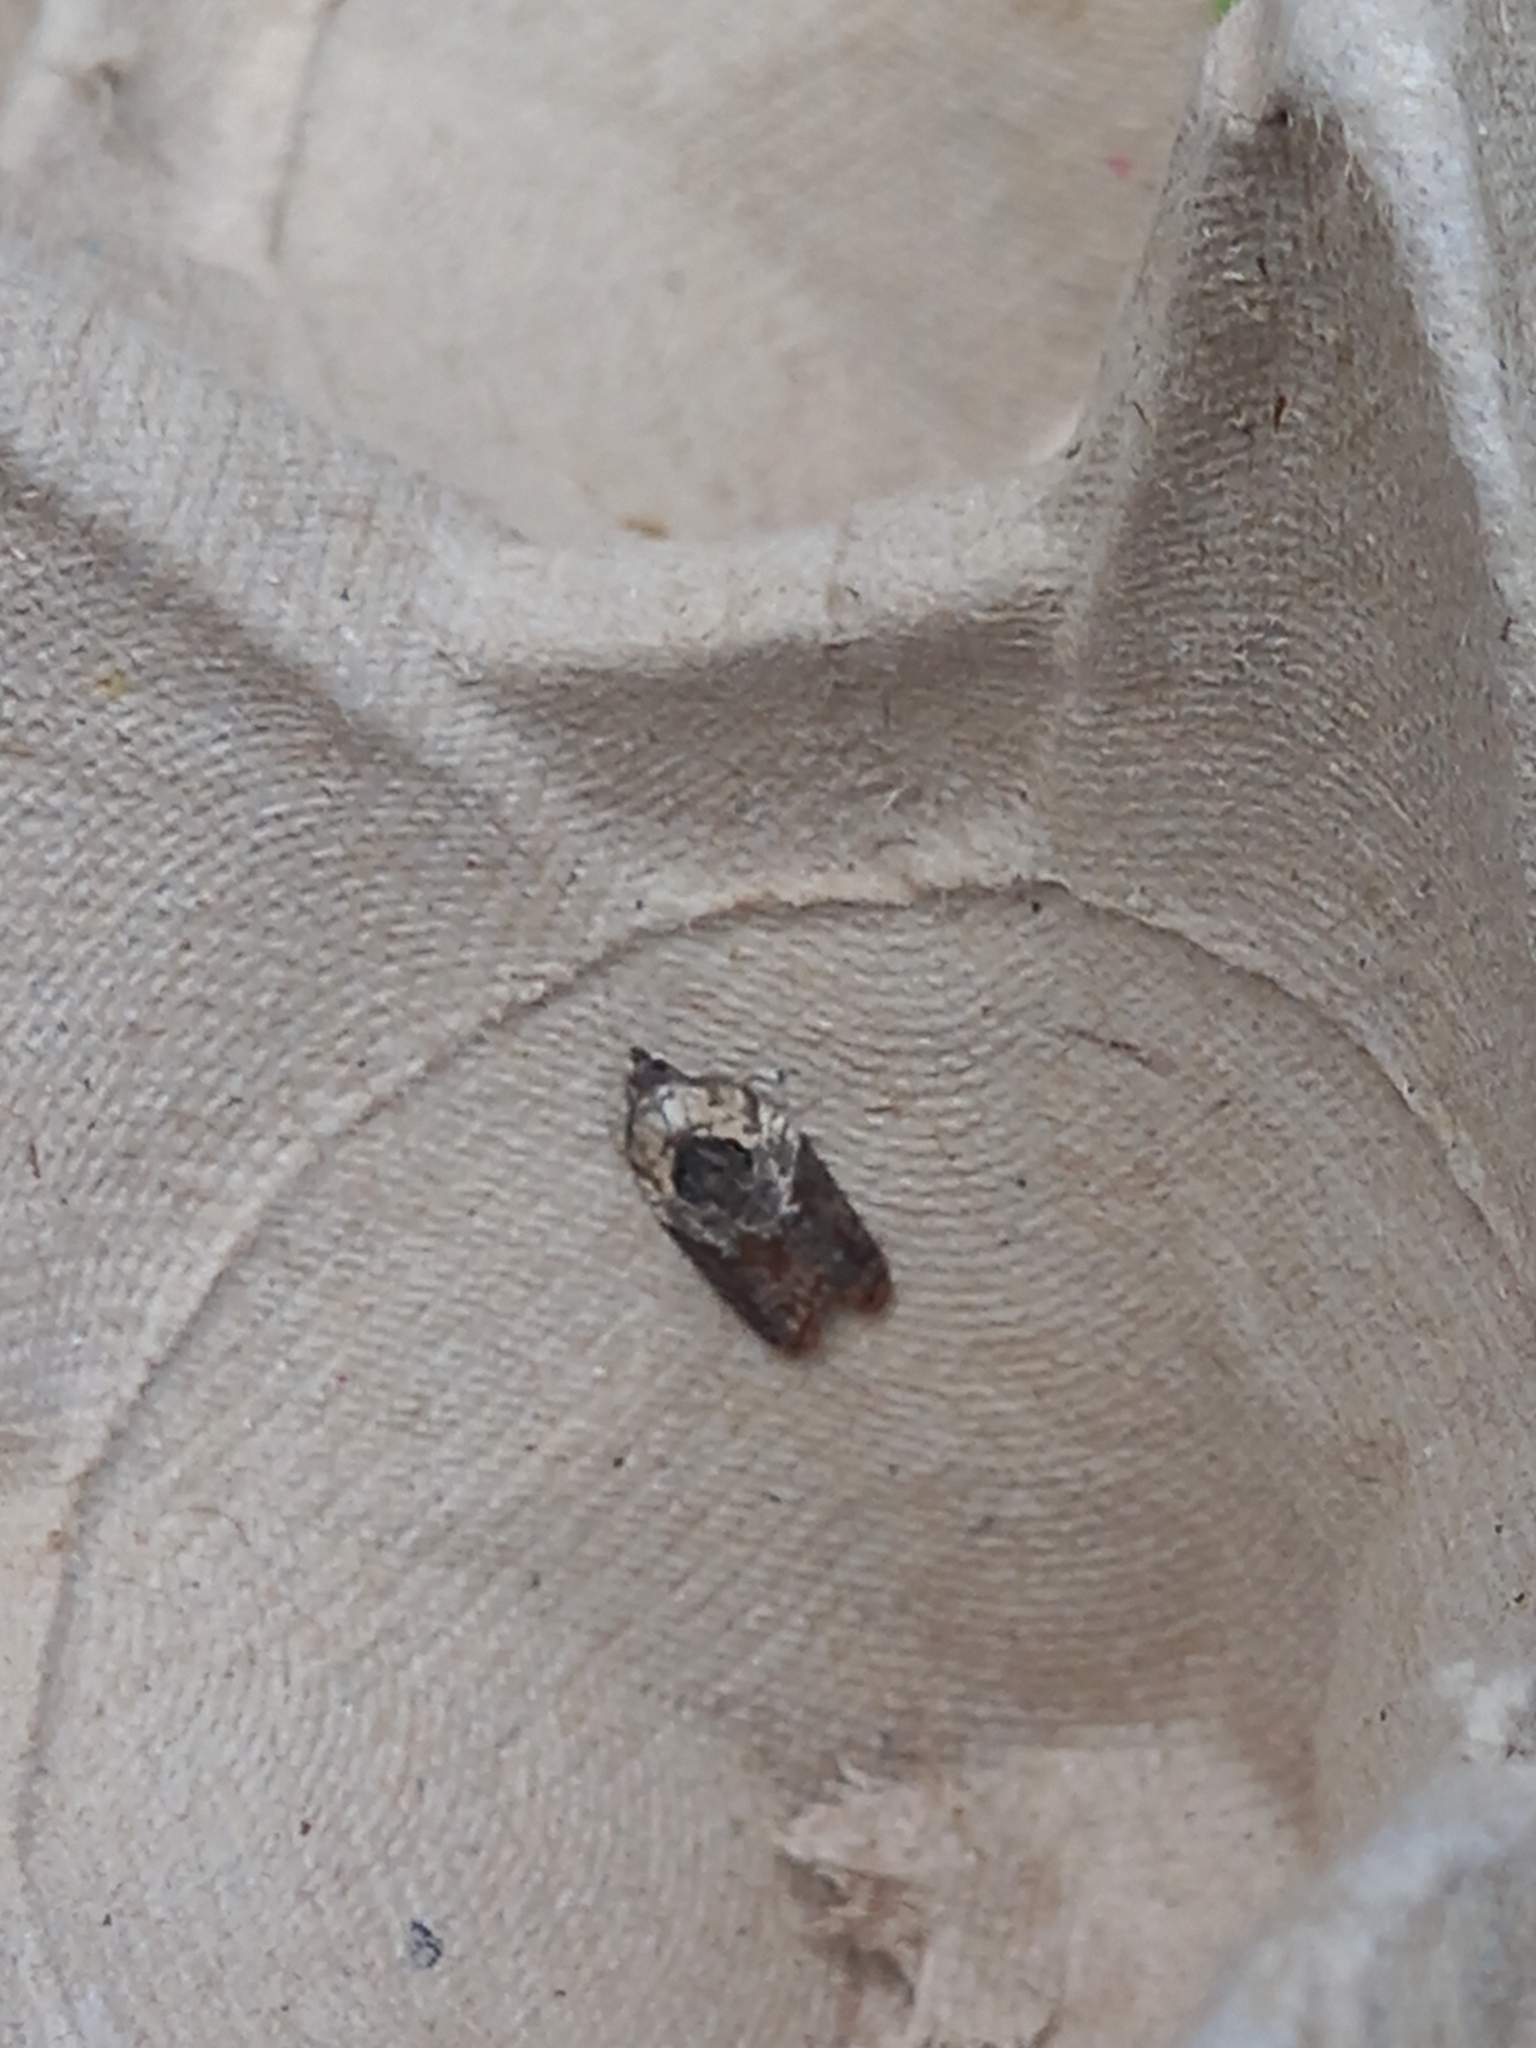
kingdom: Animalia
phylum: Arthropoda
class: Insecta
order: Lepidoptera
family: Tortricidae
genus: Acleris
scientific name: Acleris variegana
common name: Garden rose tortrix
